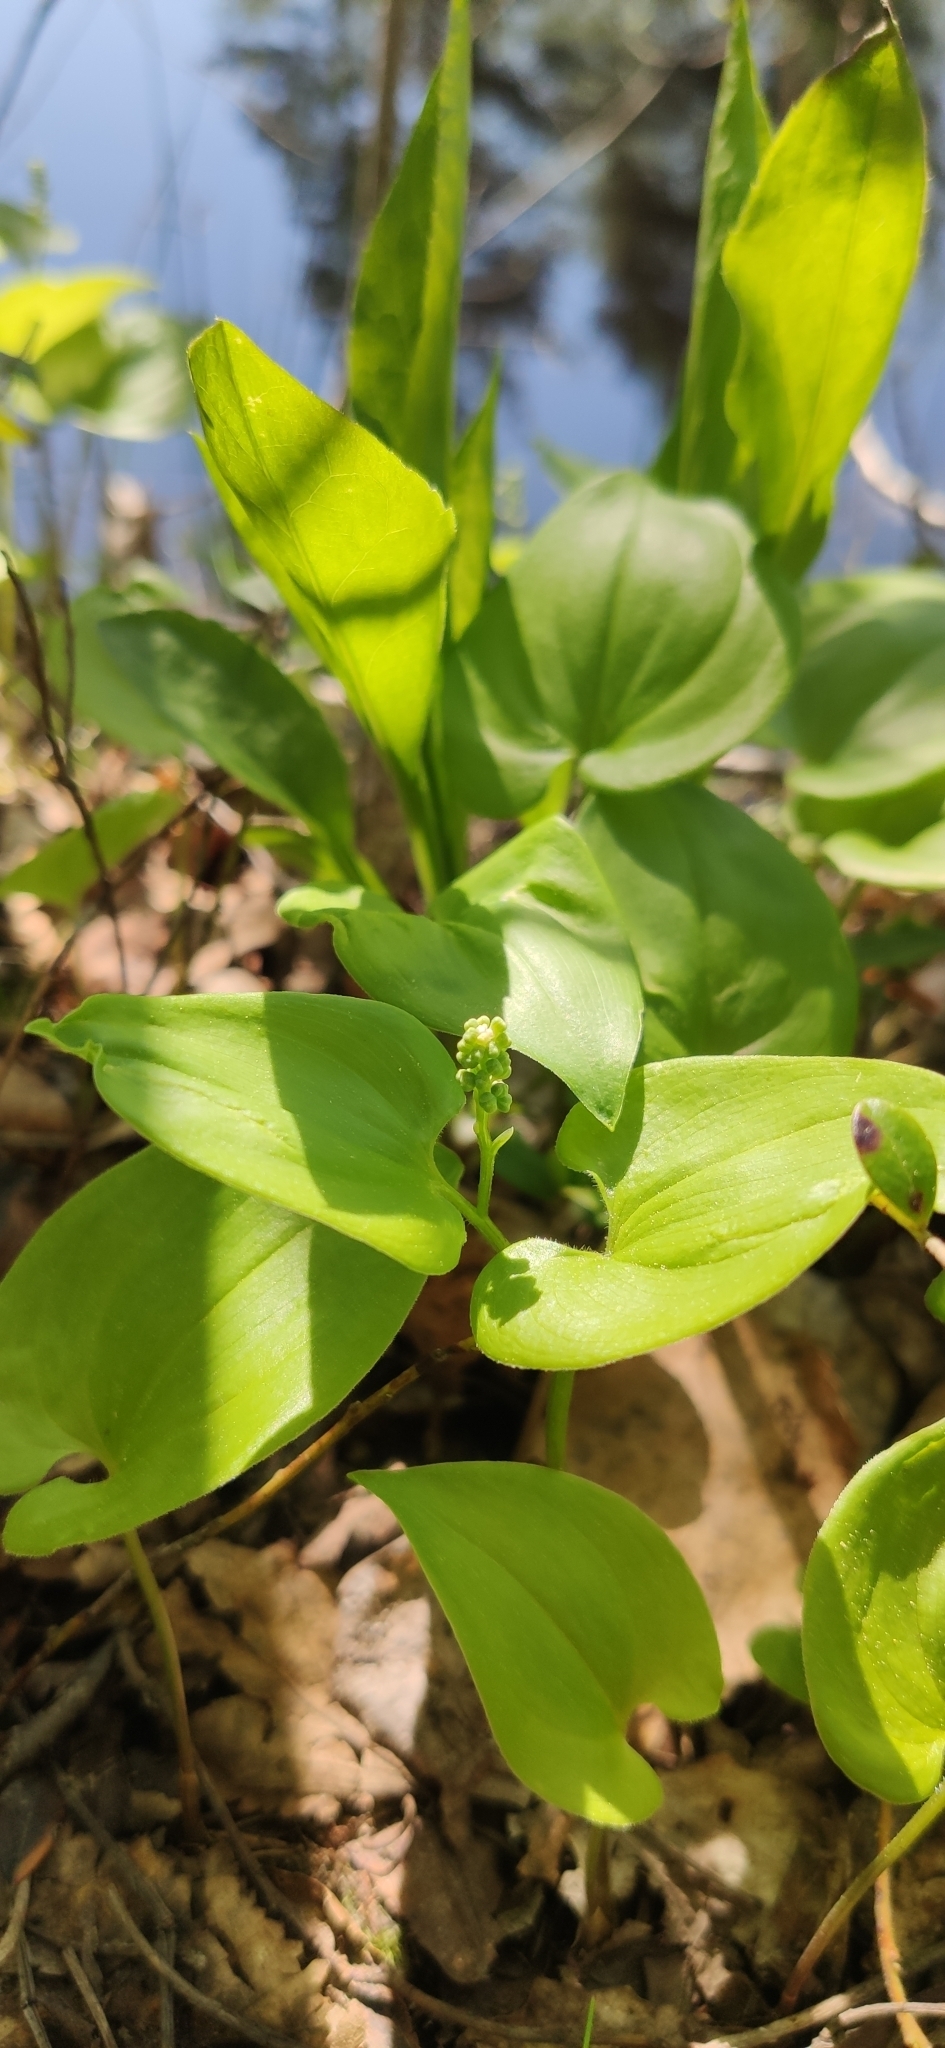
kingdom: Plantae
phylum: Tracheophyta
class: Liliopsida
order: Asparagales
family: Asparagaceae
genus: Maianthemum
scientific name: Maianthemum bifolium
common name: May lily
